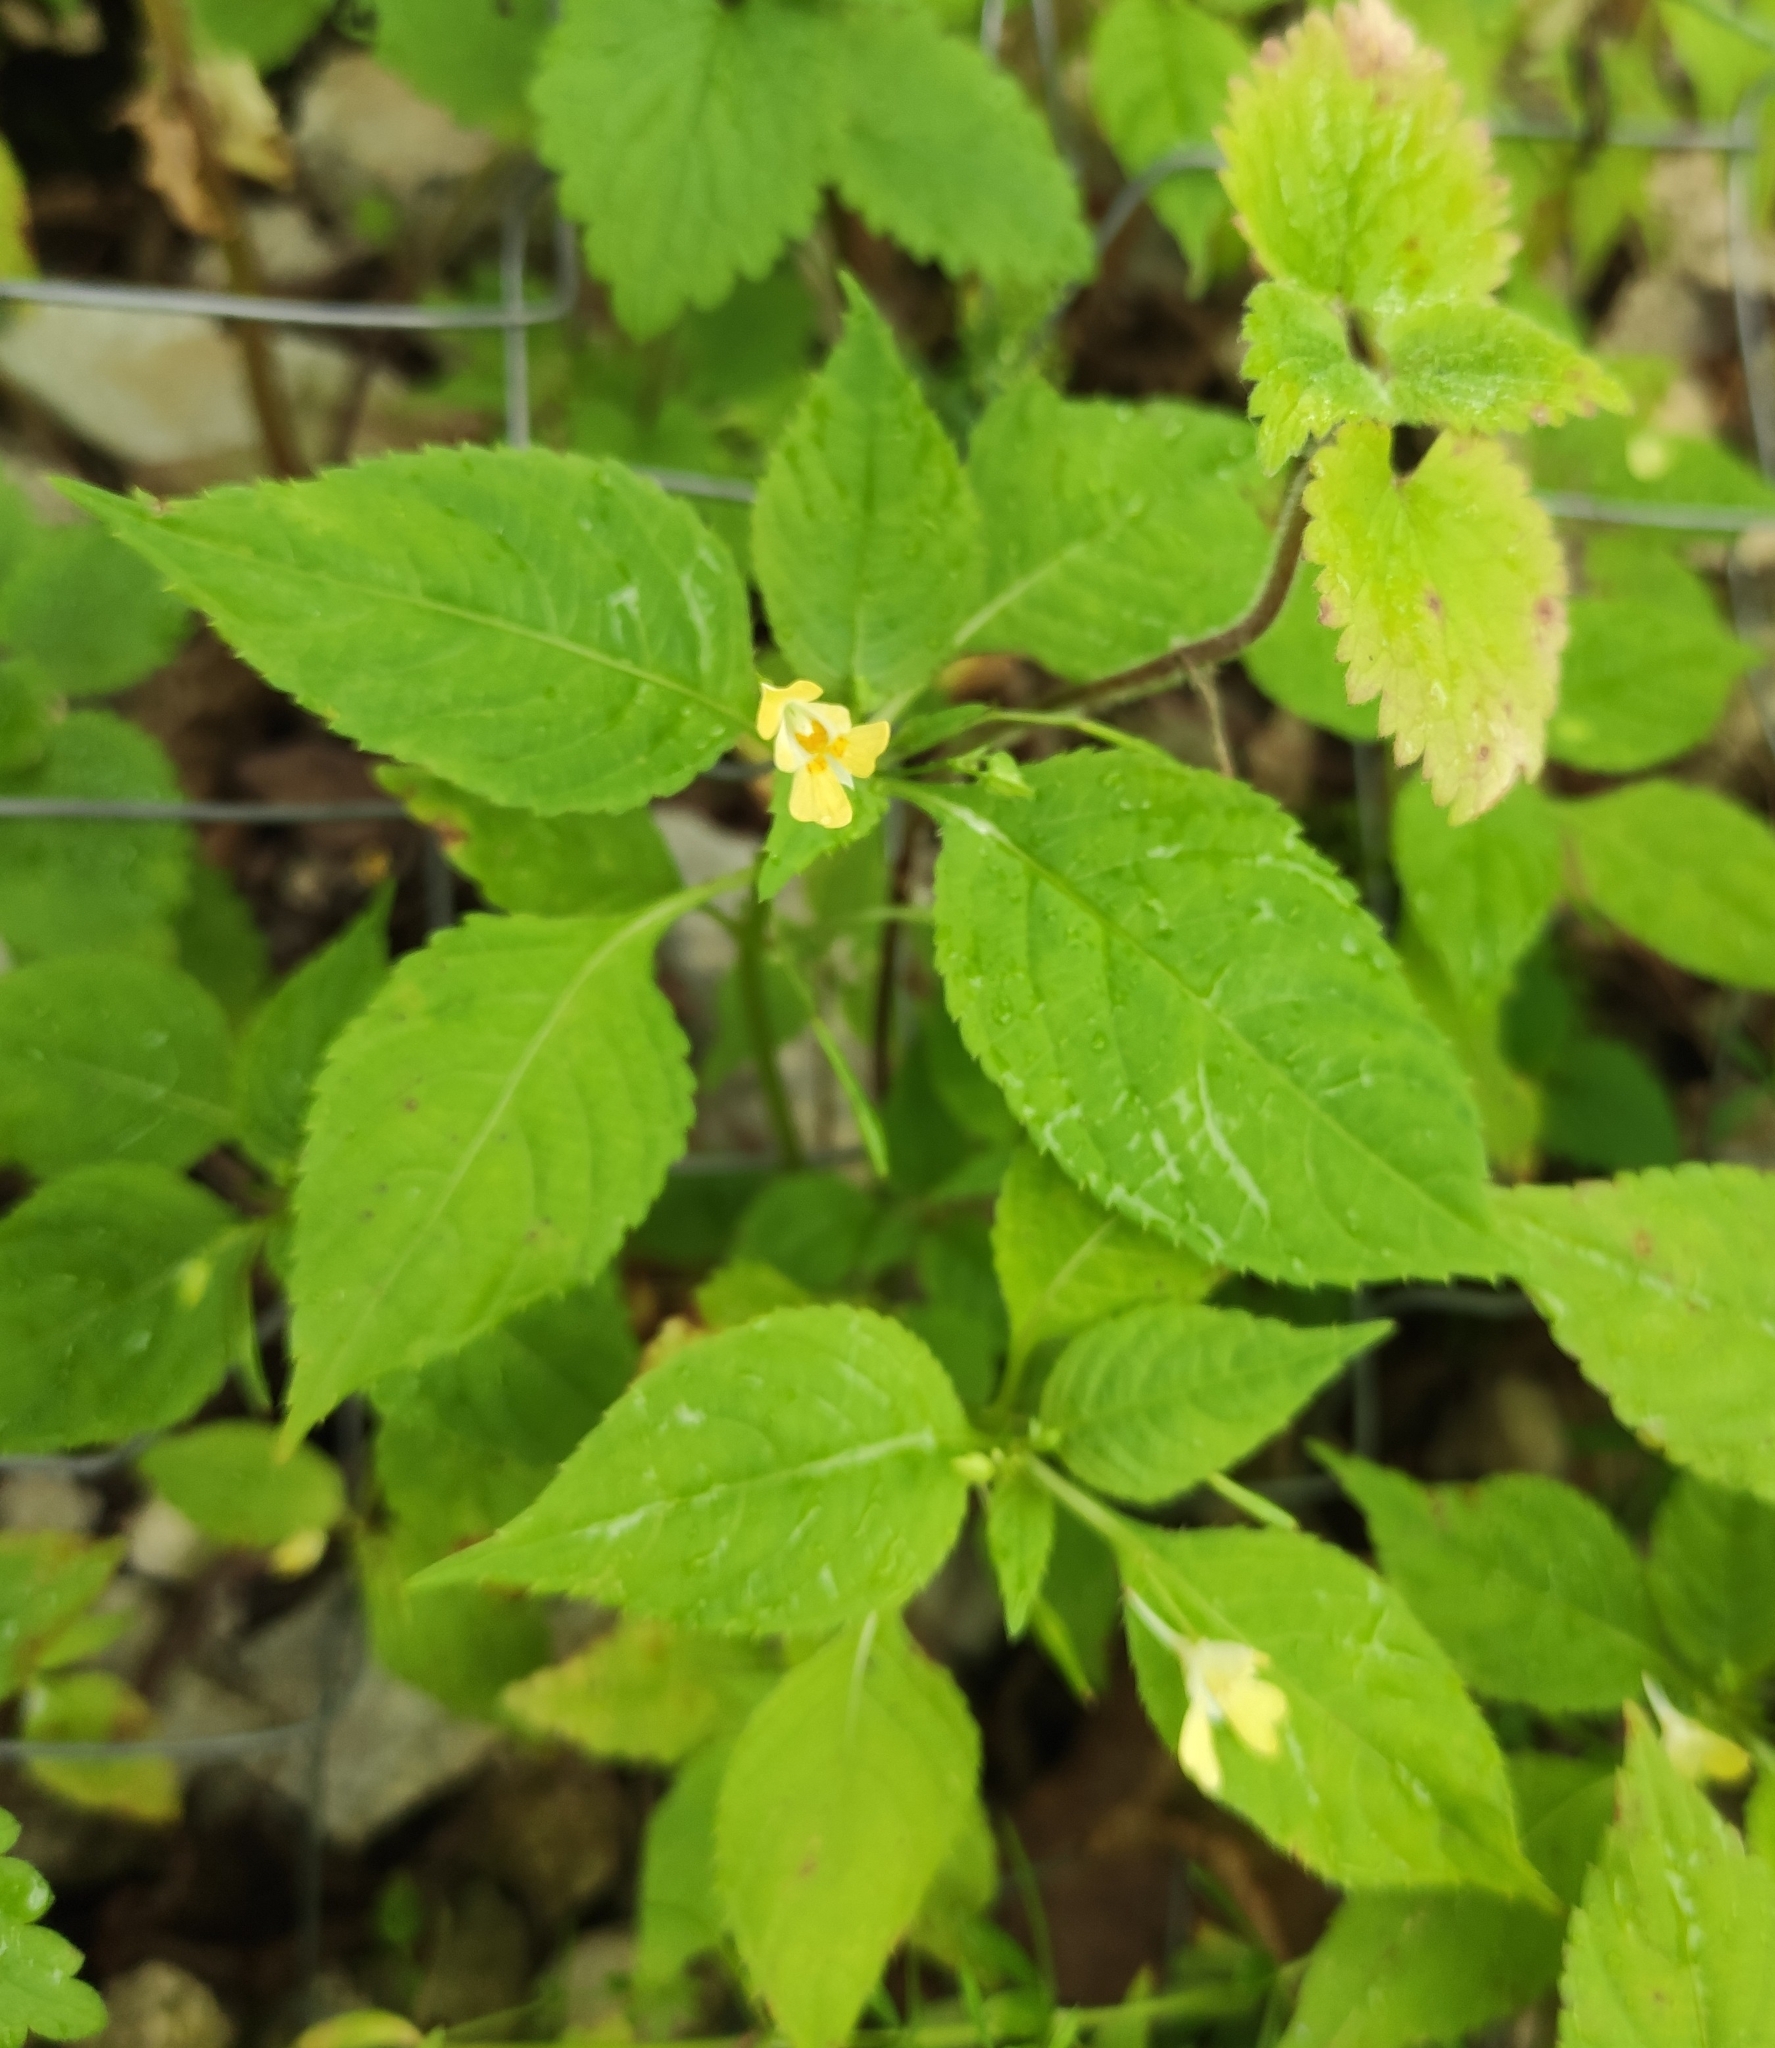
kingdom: Plantae
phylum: Tracheophyta
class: Magnoliopsida
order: Ericales
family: Balsaminaceae
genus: Impatiens
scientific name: Impatiens parviflora
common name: Small balsam
